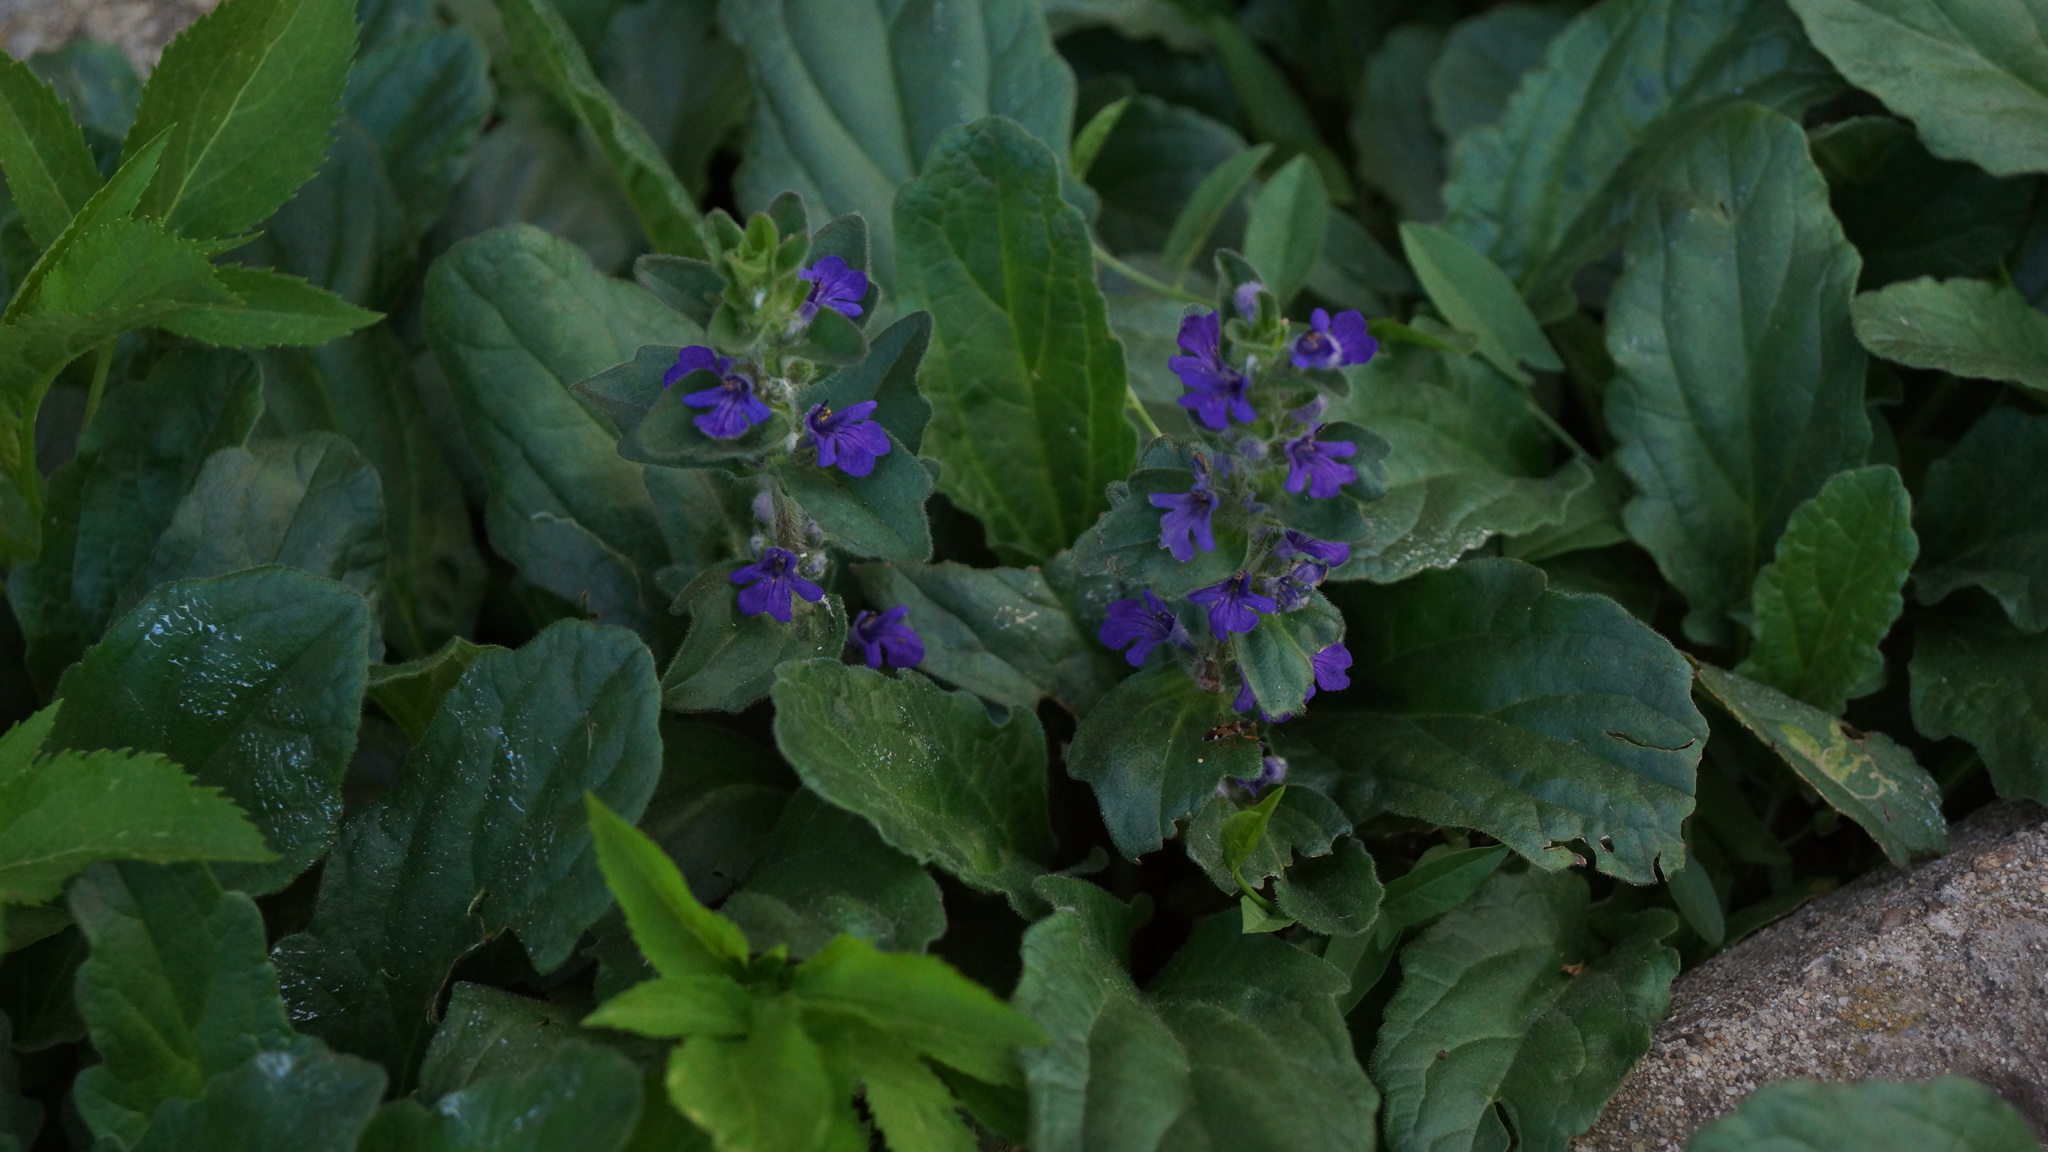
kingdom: Plantae
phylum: Tracheophyta
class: Magnoliopsida
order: Lamiales
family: Lamiaceae
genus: Ajuga
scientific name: Ajuga genevensis
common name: Blue bugle
